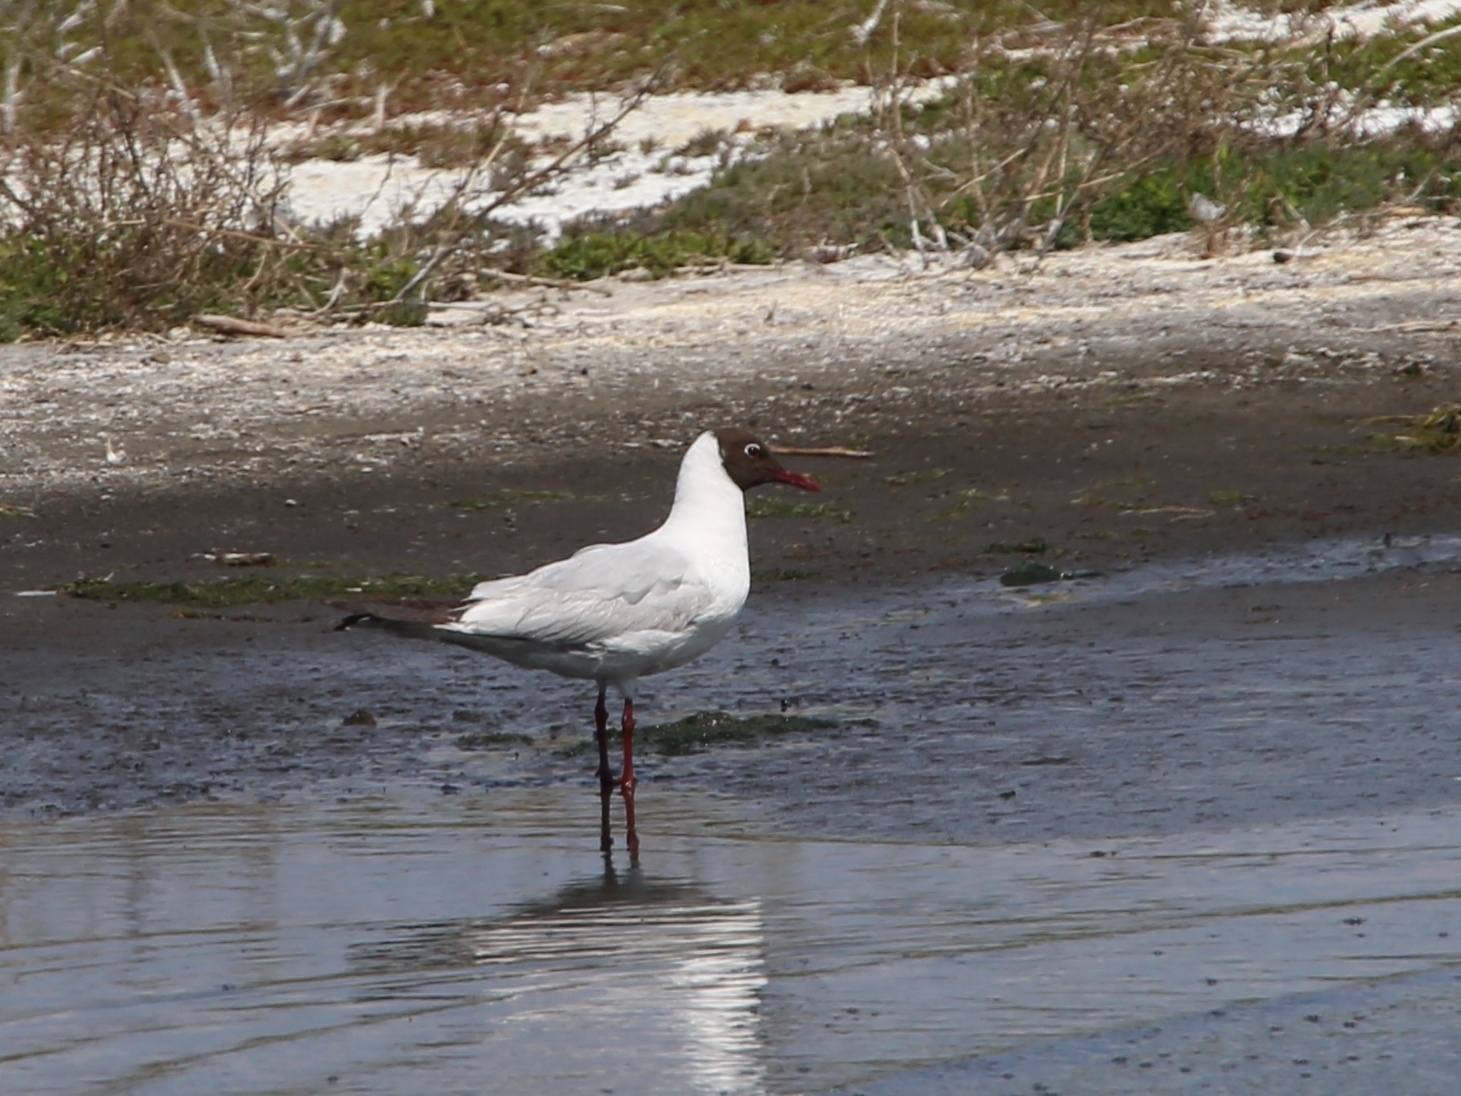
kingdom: Animalia
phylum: Chordata
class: Aves
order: Charadriiformes
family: Laridae
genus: Chroicocephalus
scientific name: Chroicocephalus ridibundus
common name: Black-headed gull
